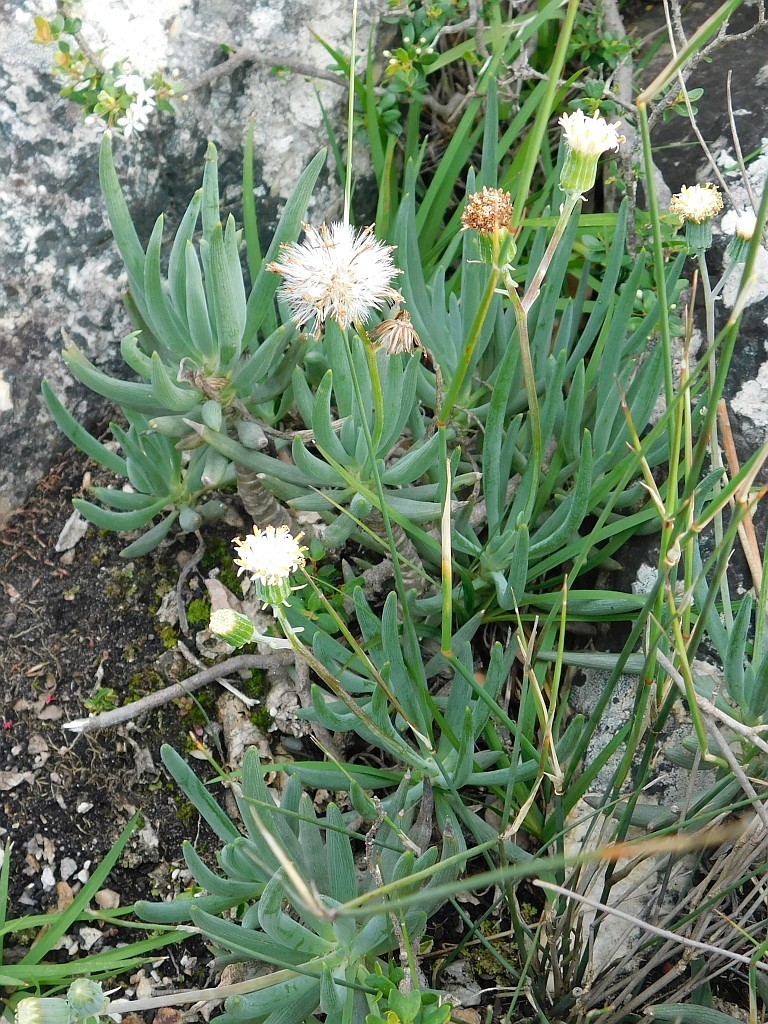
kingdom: Plantae
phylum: Tracheophyta
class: Magnoliopsida
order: Asterales
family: Asteraceae
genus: Curio
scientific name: Curio talinoides
